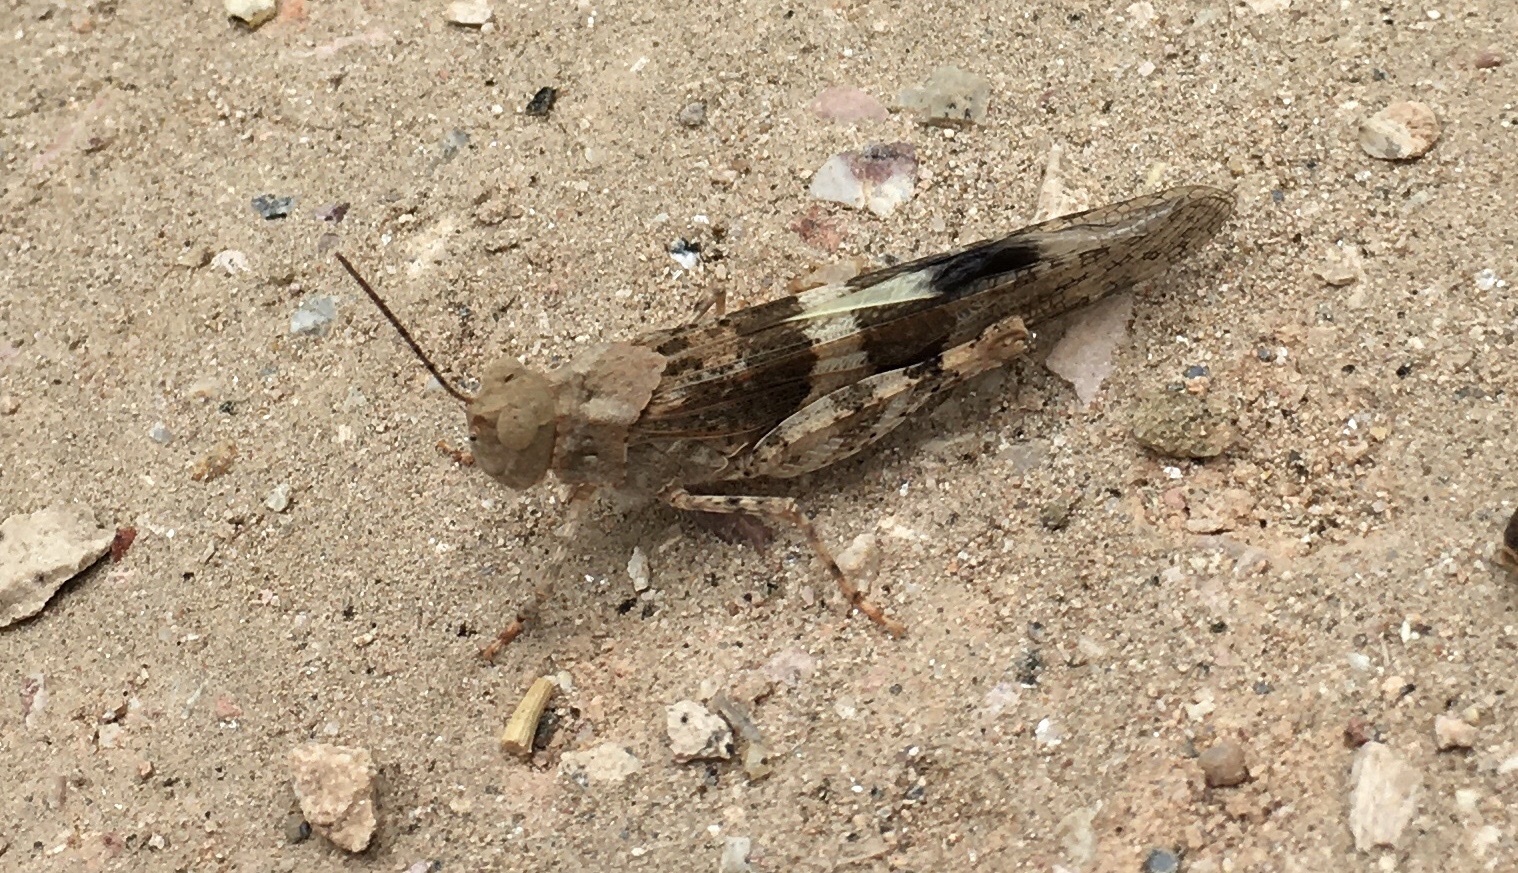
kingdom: Animalia
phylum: Arthropoda
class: Insecta
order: Orthoptera
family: Acrididae
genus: Trimerotropis
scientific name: Trimerotropis pallidipennis
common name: Pallid-winged grasshopper
